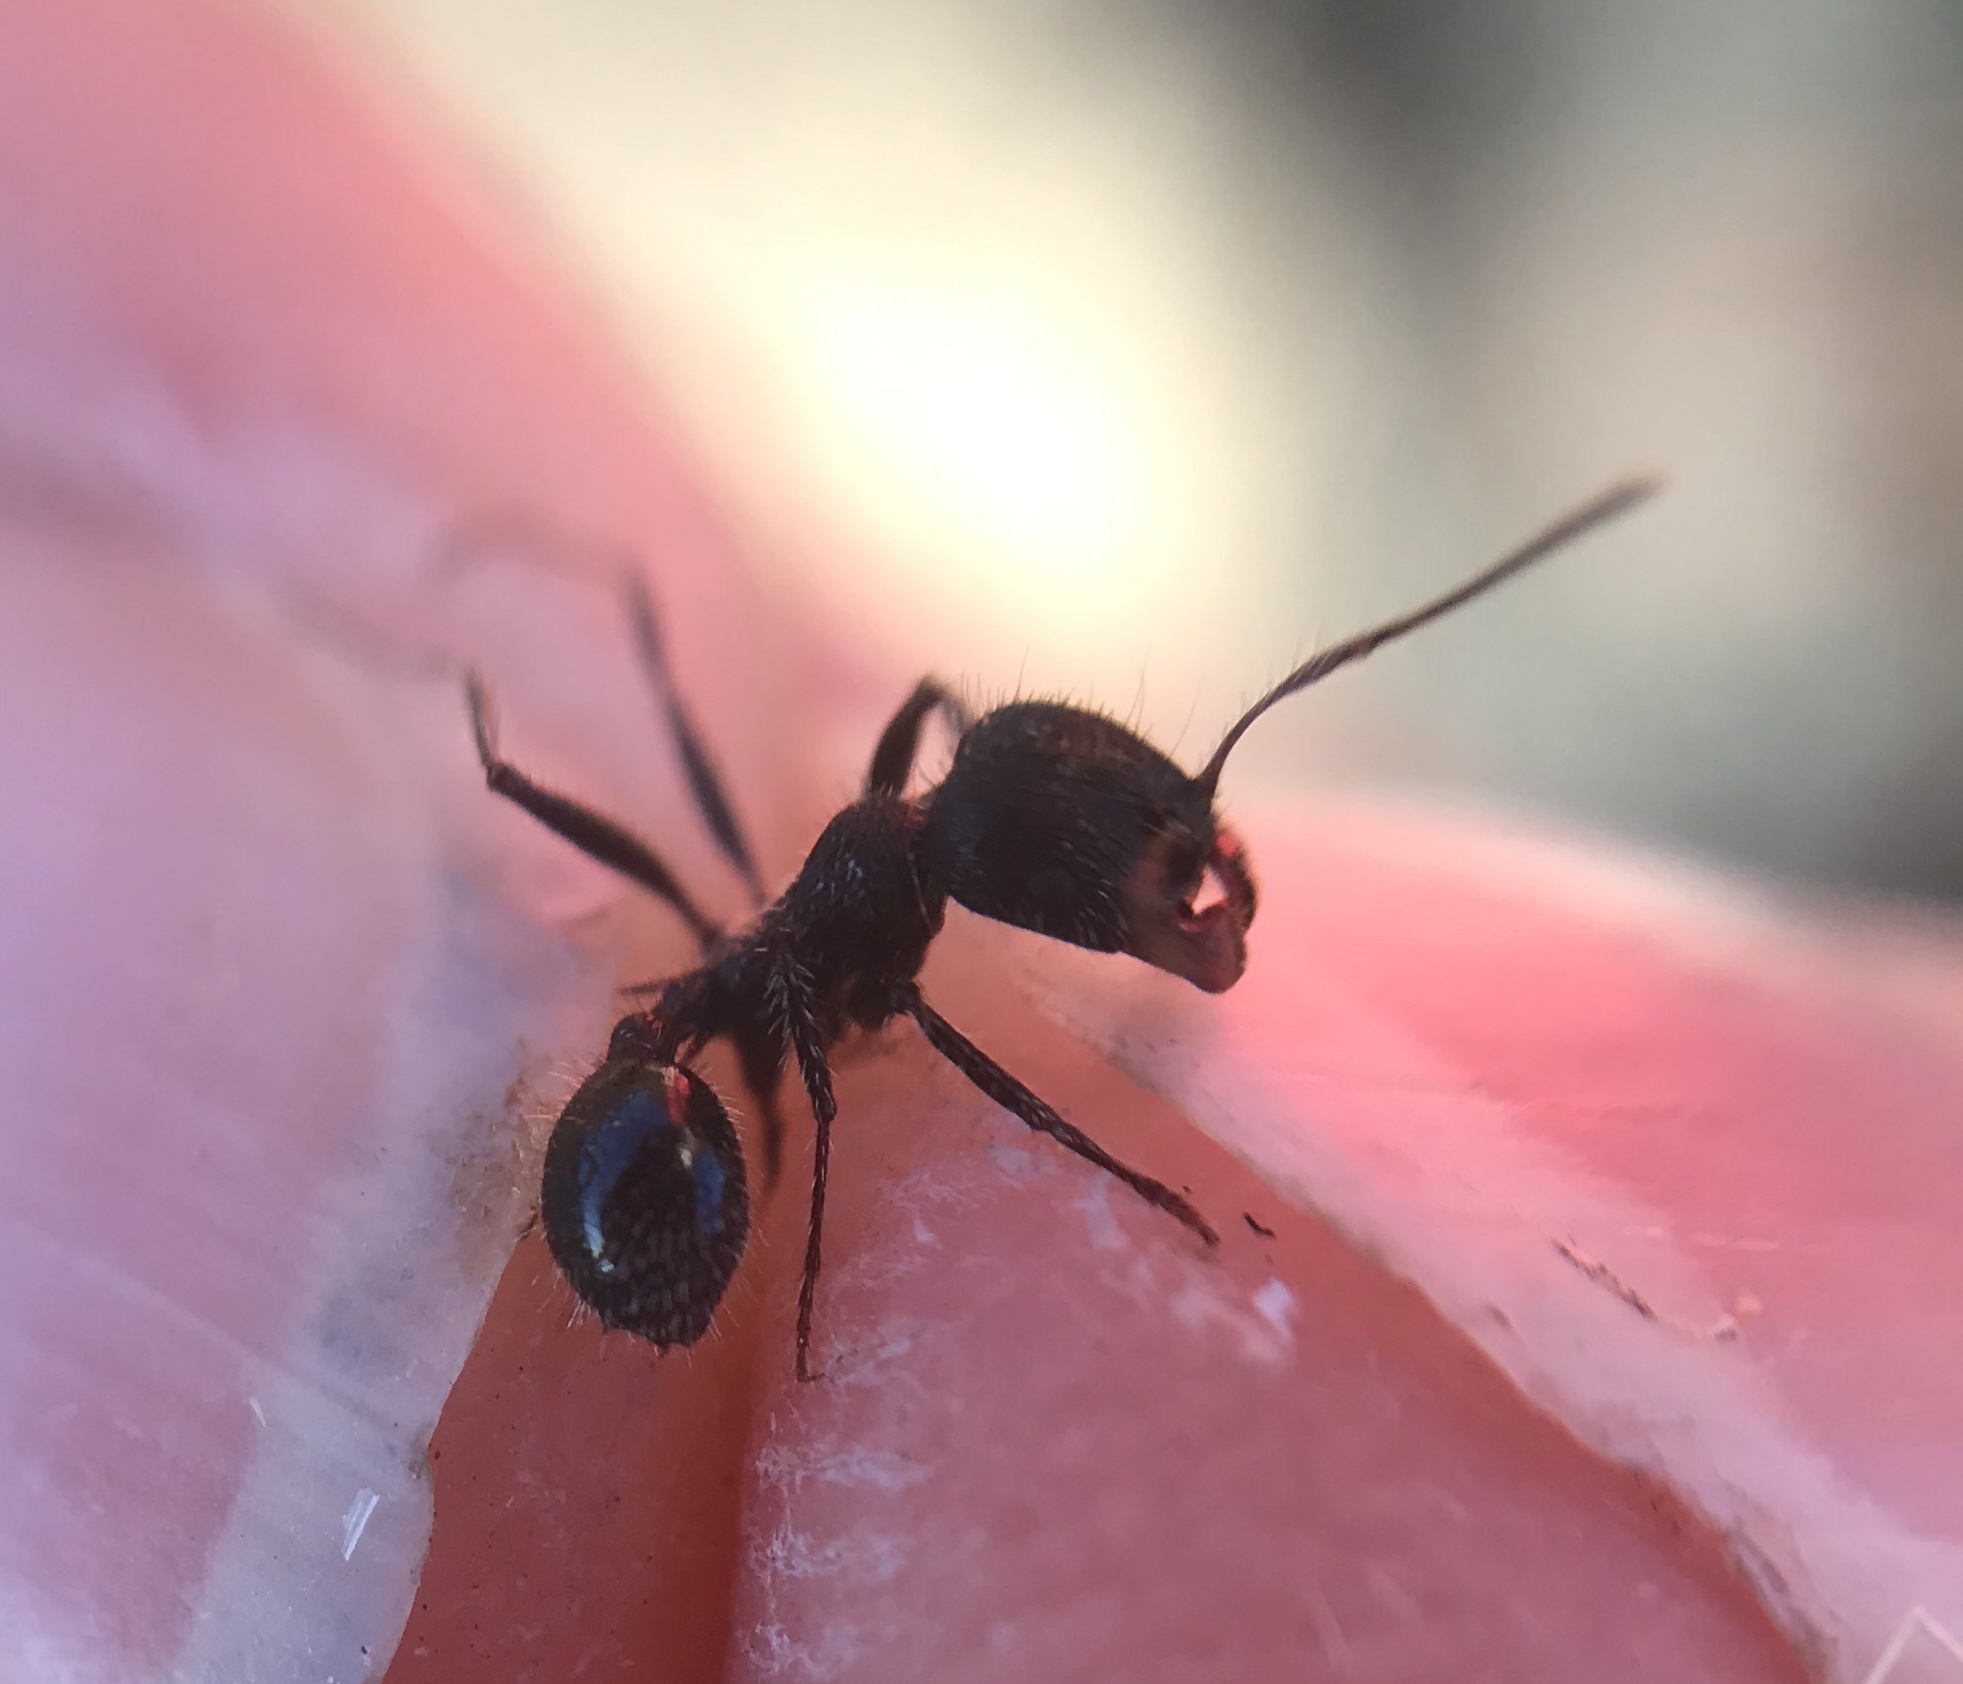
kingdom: Animalia
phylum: Arthropoda
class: Insecta
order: Hymenoptera
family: Formicidae
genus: Veromessor
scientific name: Veromessor andrei
